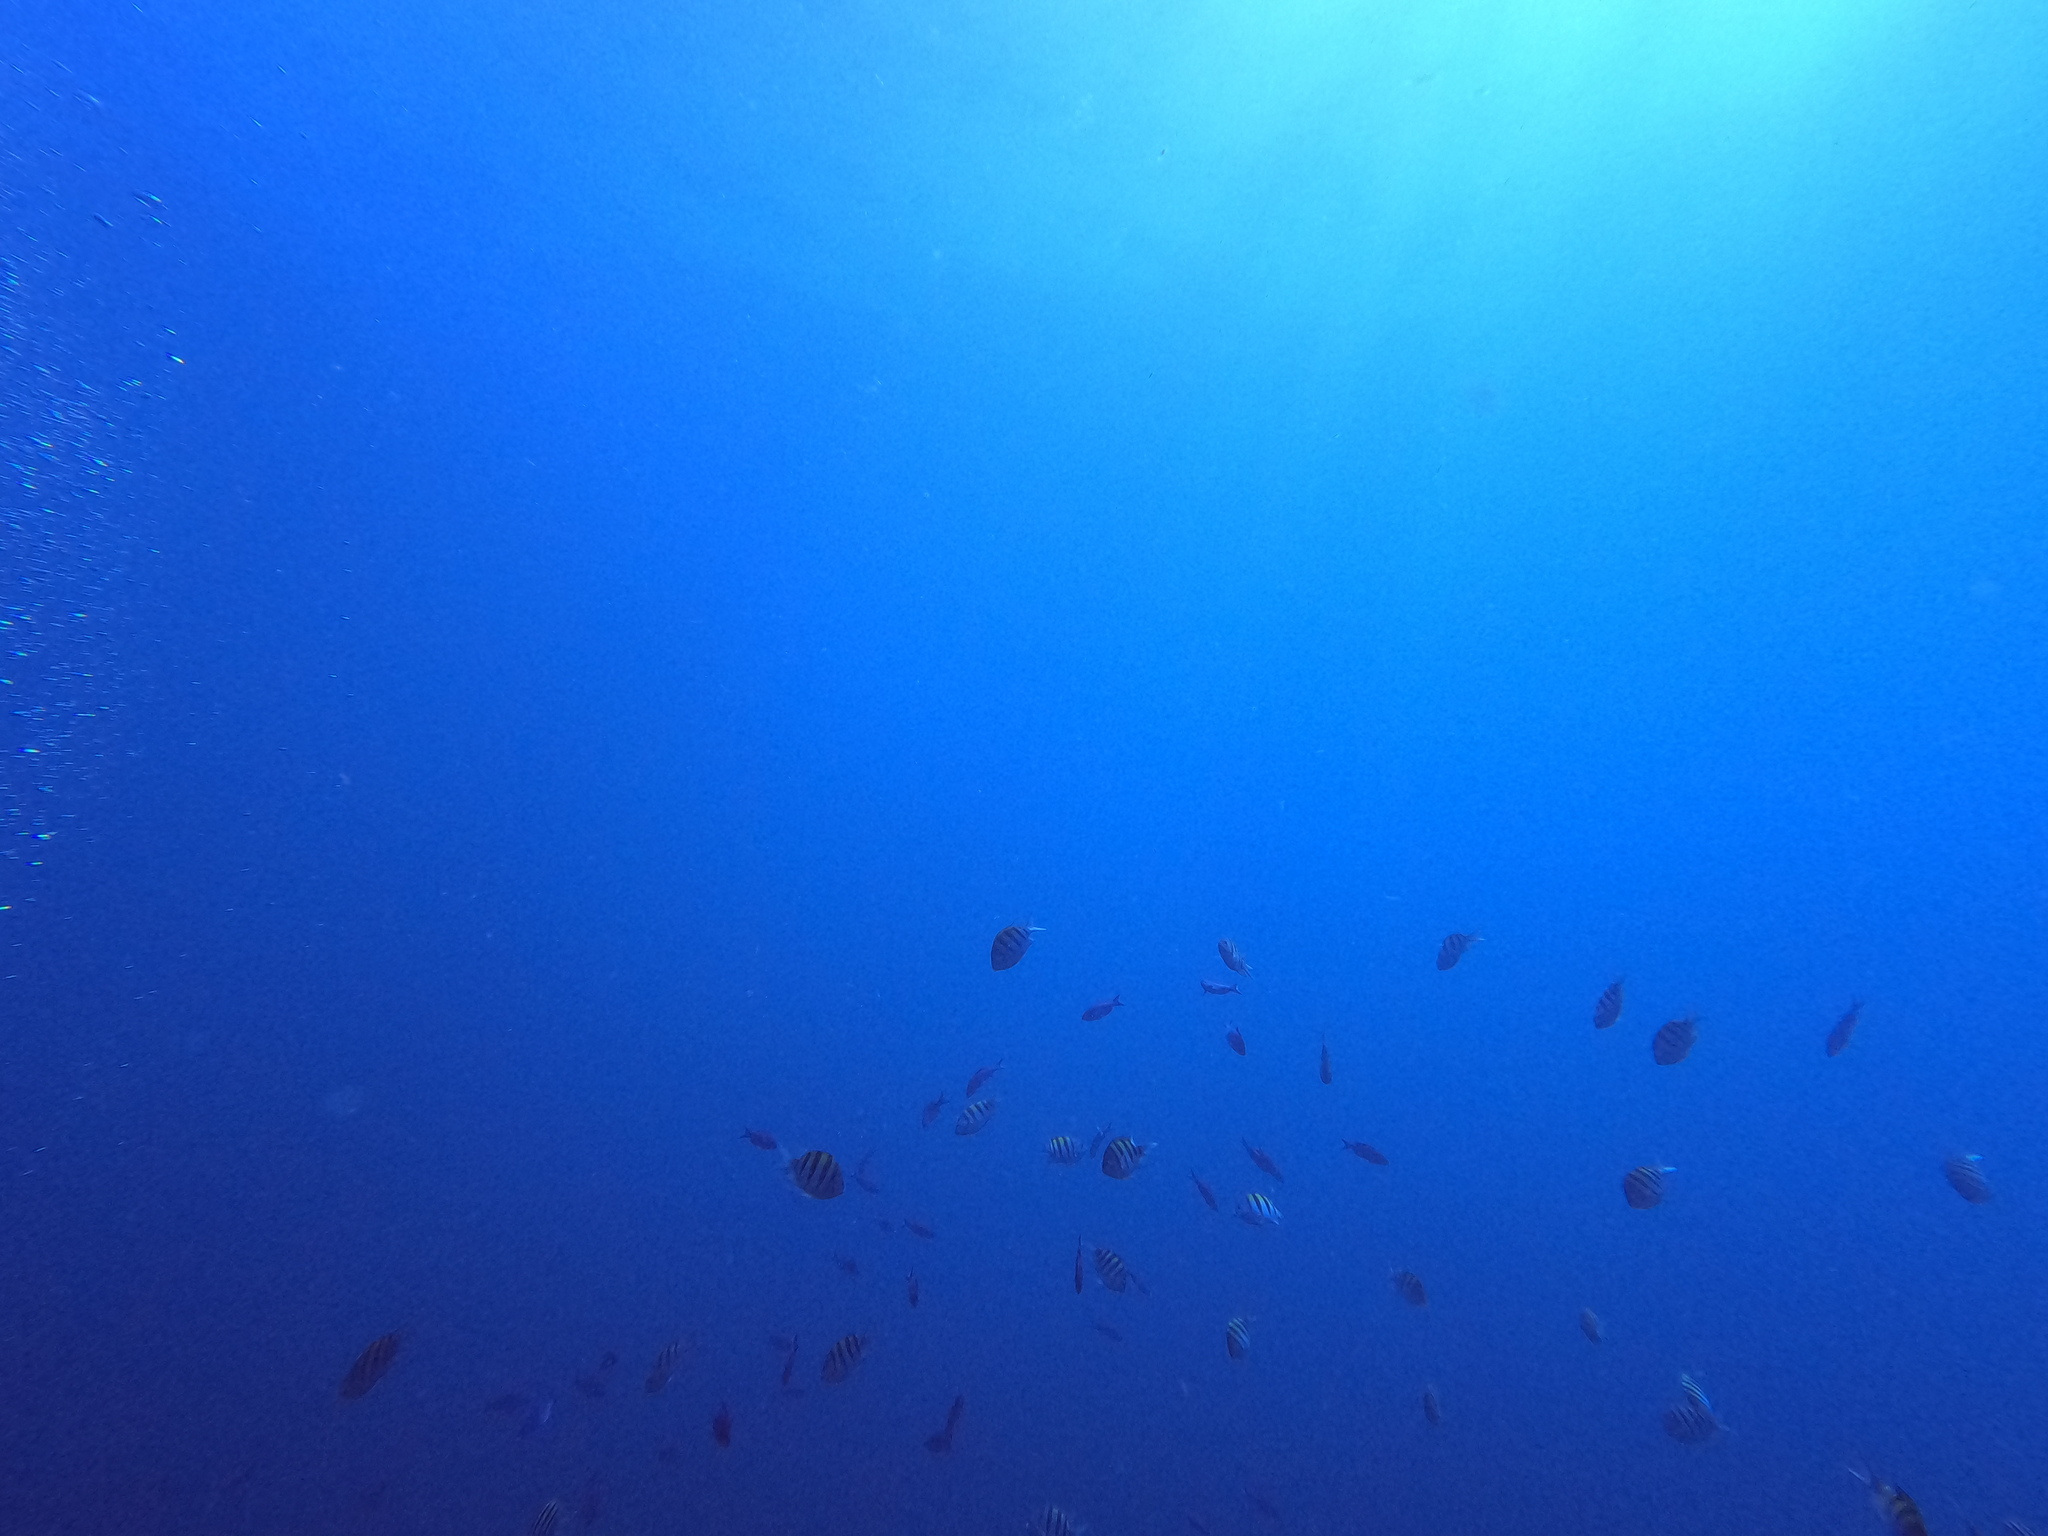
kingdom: Animalia
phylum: Chordata
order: Perciformes
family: Pomacentridae
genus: Abudefduf
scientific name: Abudefduf saxatilis
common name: Sergeant major
